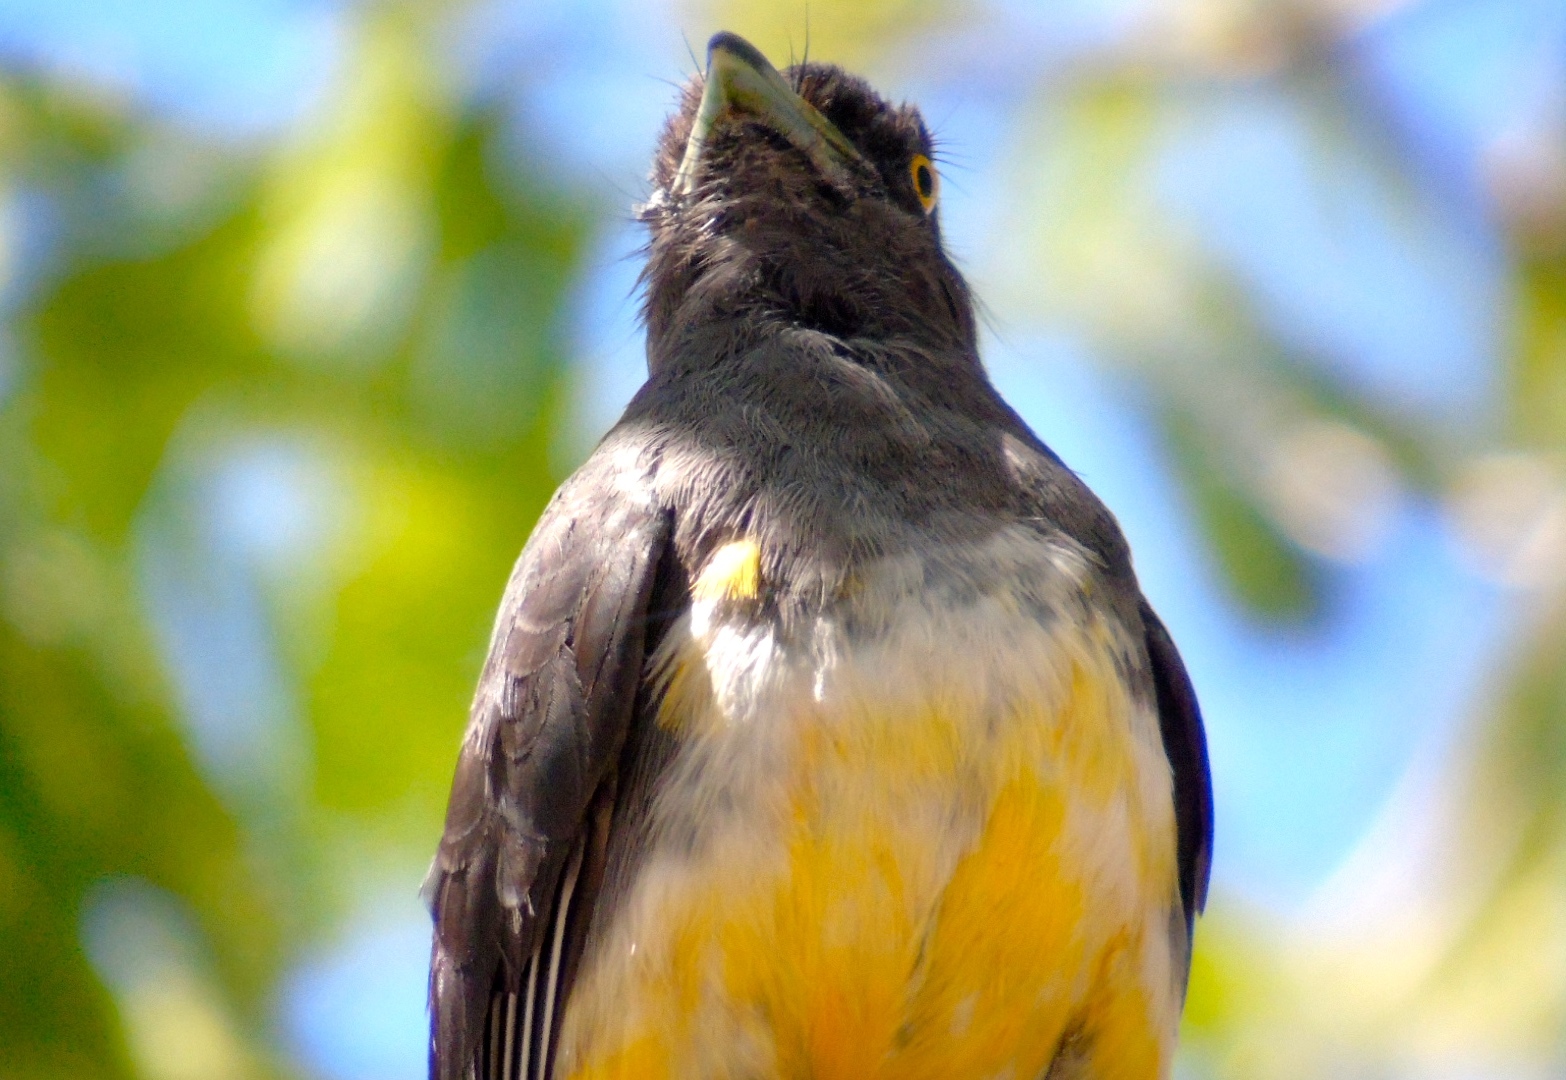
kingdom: Animalia
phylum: Chordata
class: Aves
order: Trogoniformes
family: Trogonidae
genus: Trogon
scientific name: Trogon citreolus
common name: Citreoline trogon
